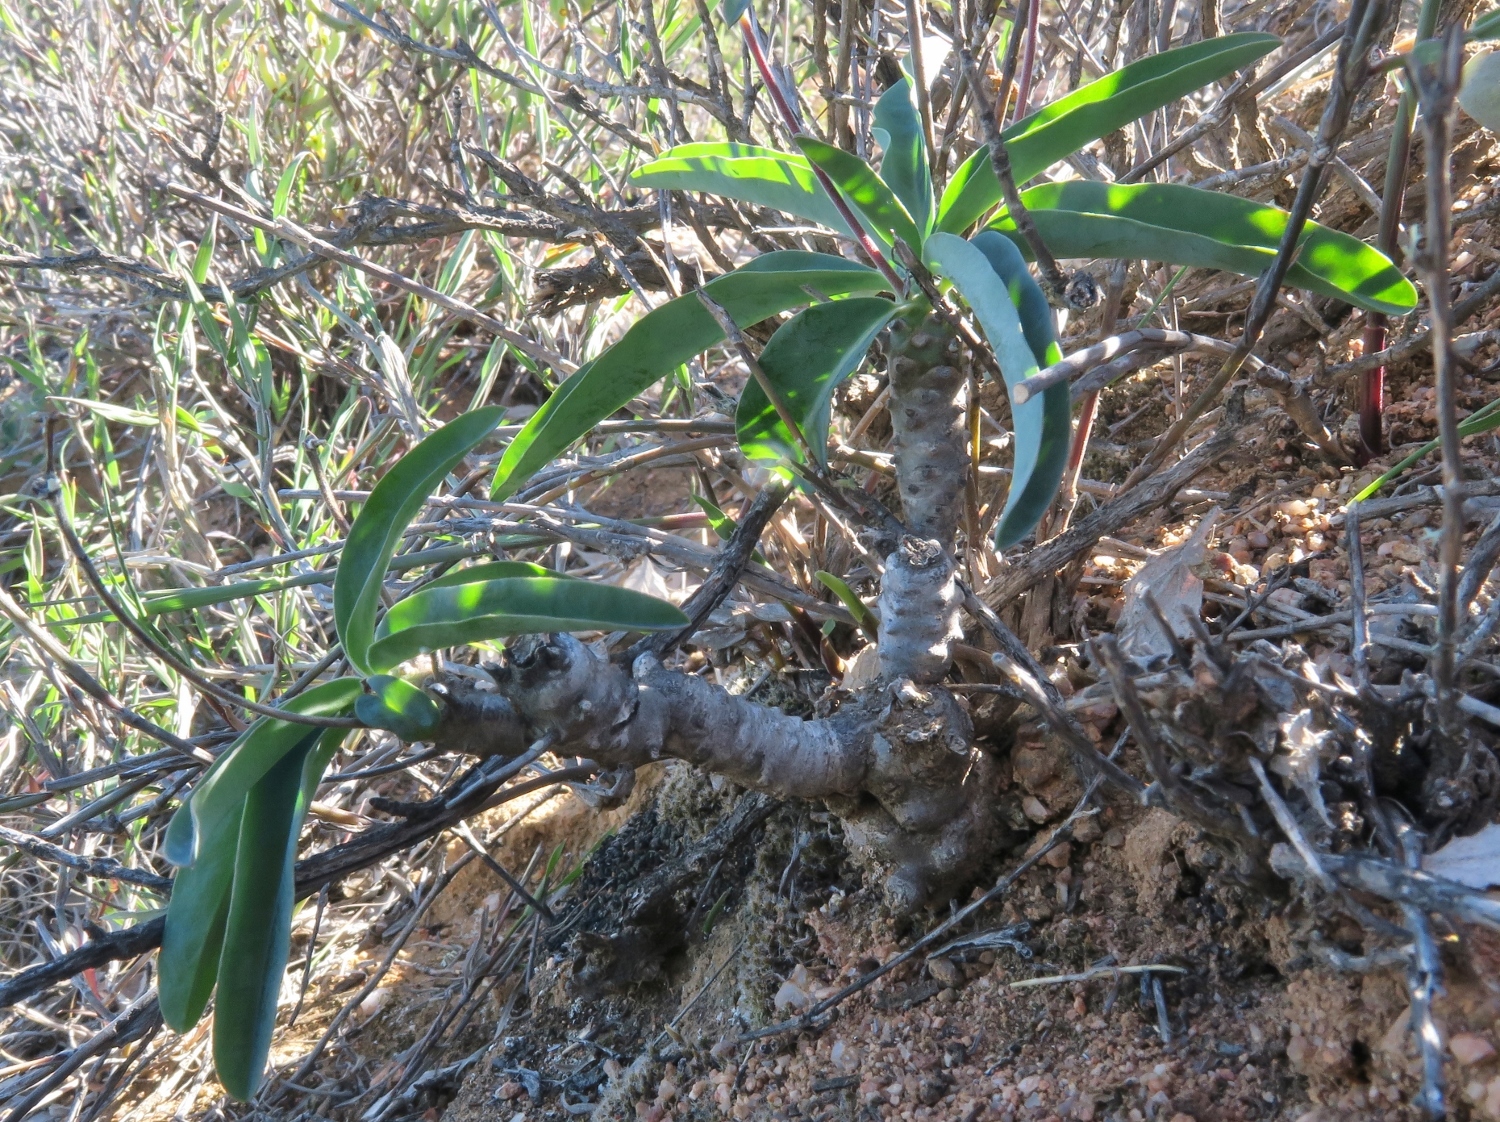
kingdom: Plantae
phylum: Tracheophyta
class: Magnoliopsida
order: Malpighiales
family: Euphorbiaceae
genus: Euphorbia
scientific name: Euphorbia oxystegia
